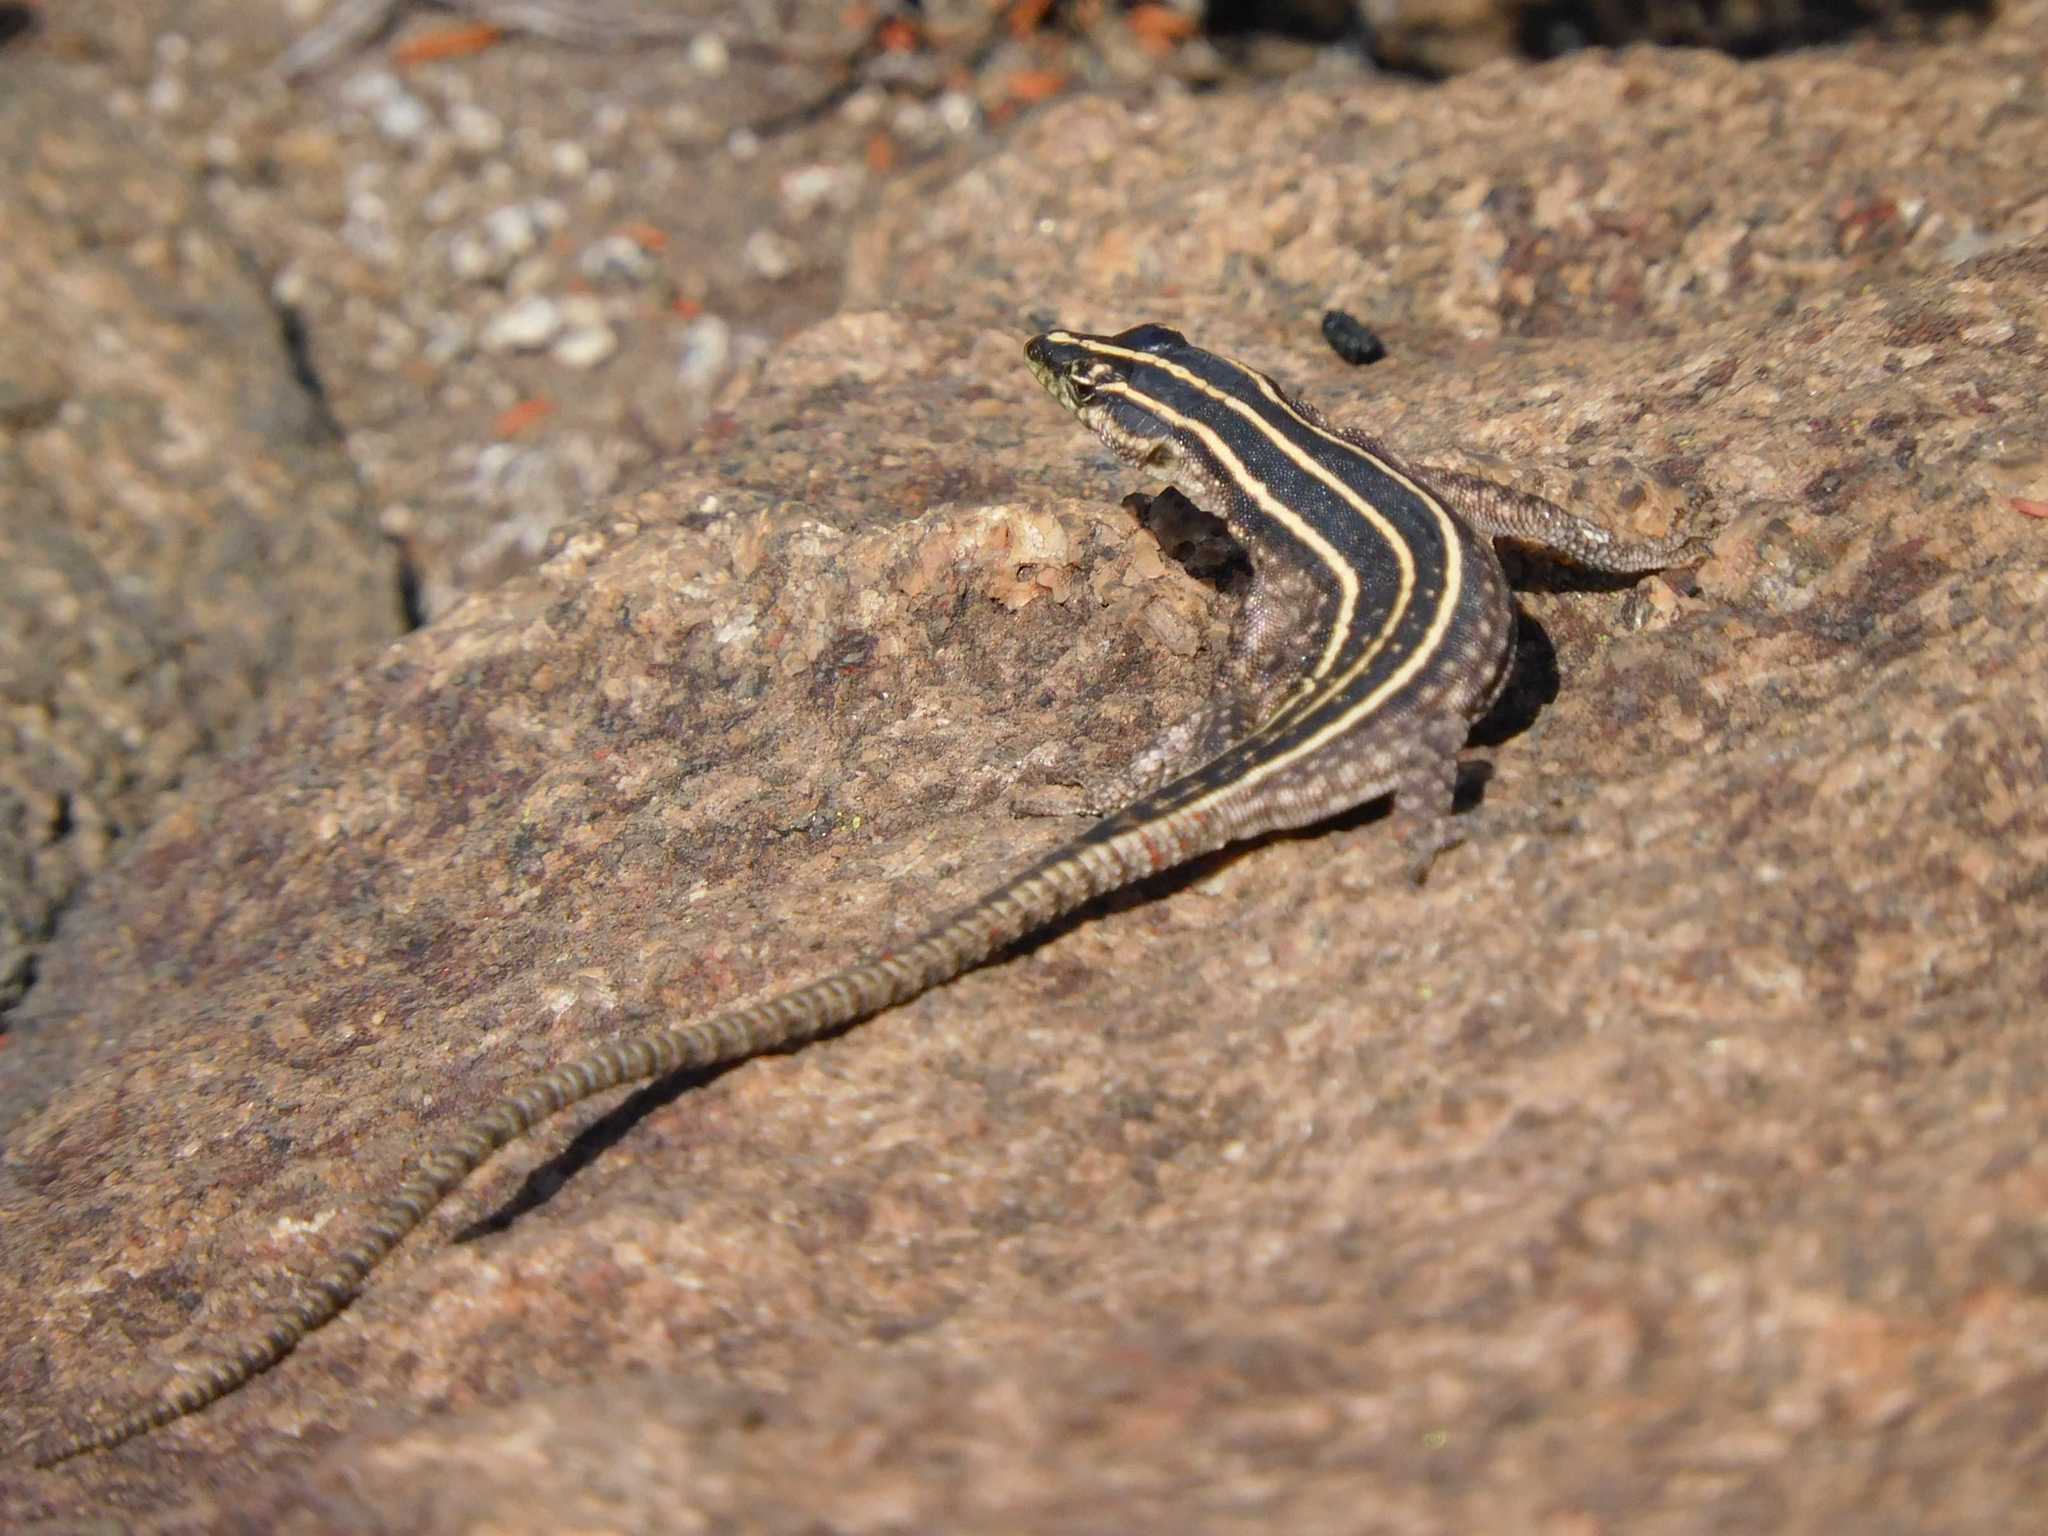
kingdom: Animalia
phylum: Chordata
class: Squamata
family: Cordylidae
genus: Platysaurus
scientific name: Platysaurus orientalis
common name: Sekhukune flat lizard
